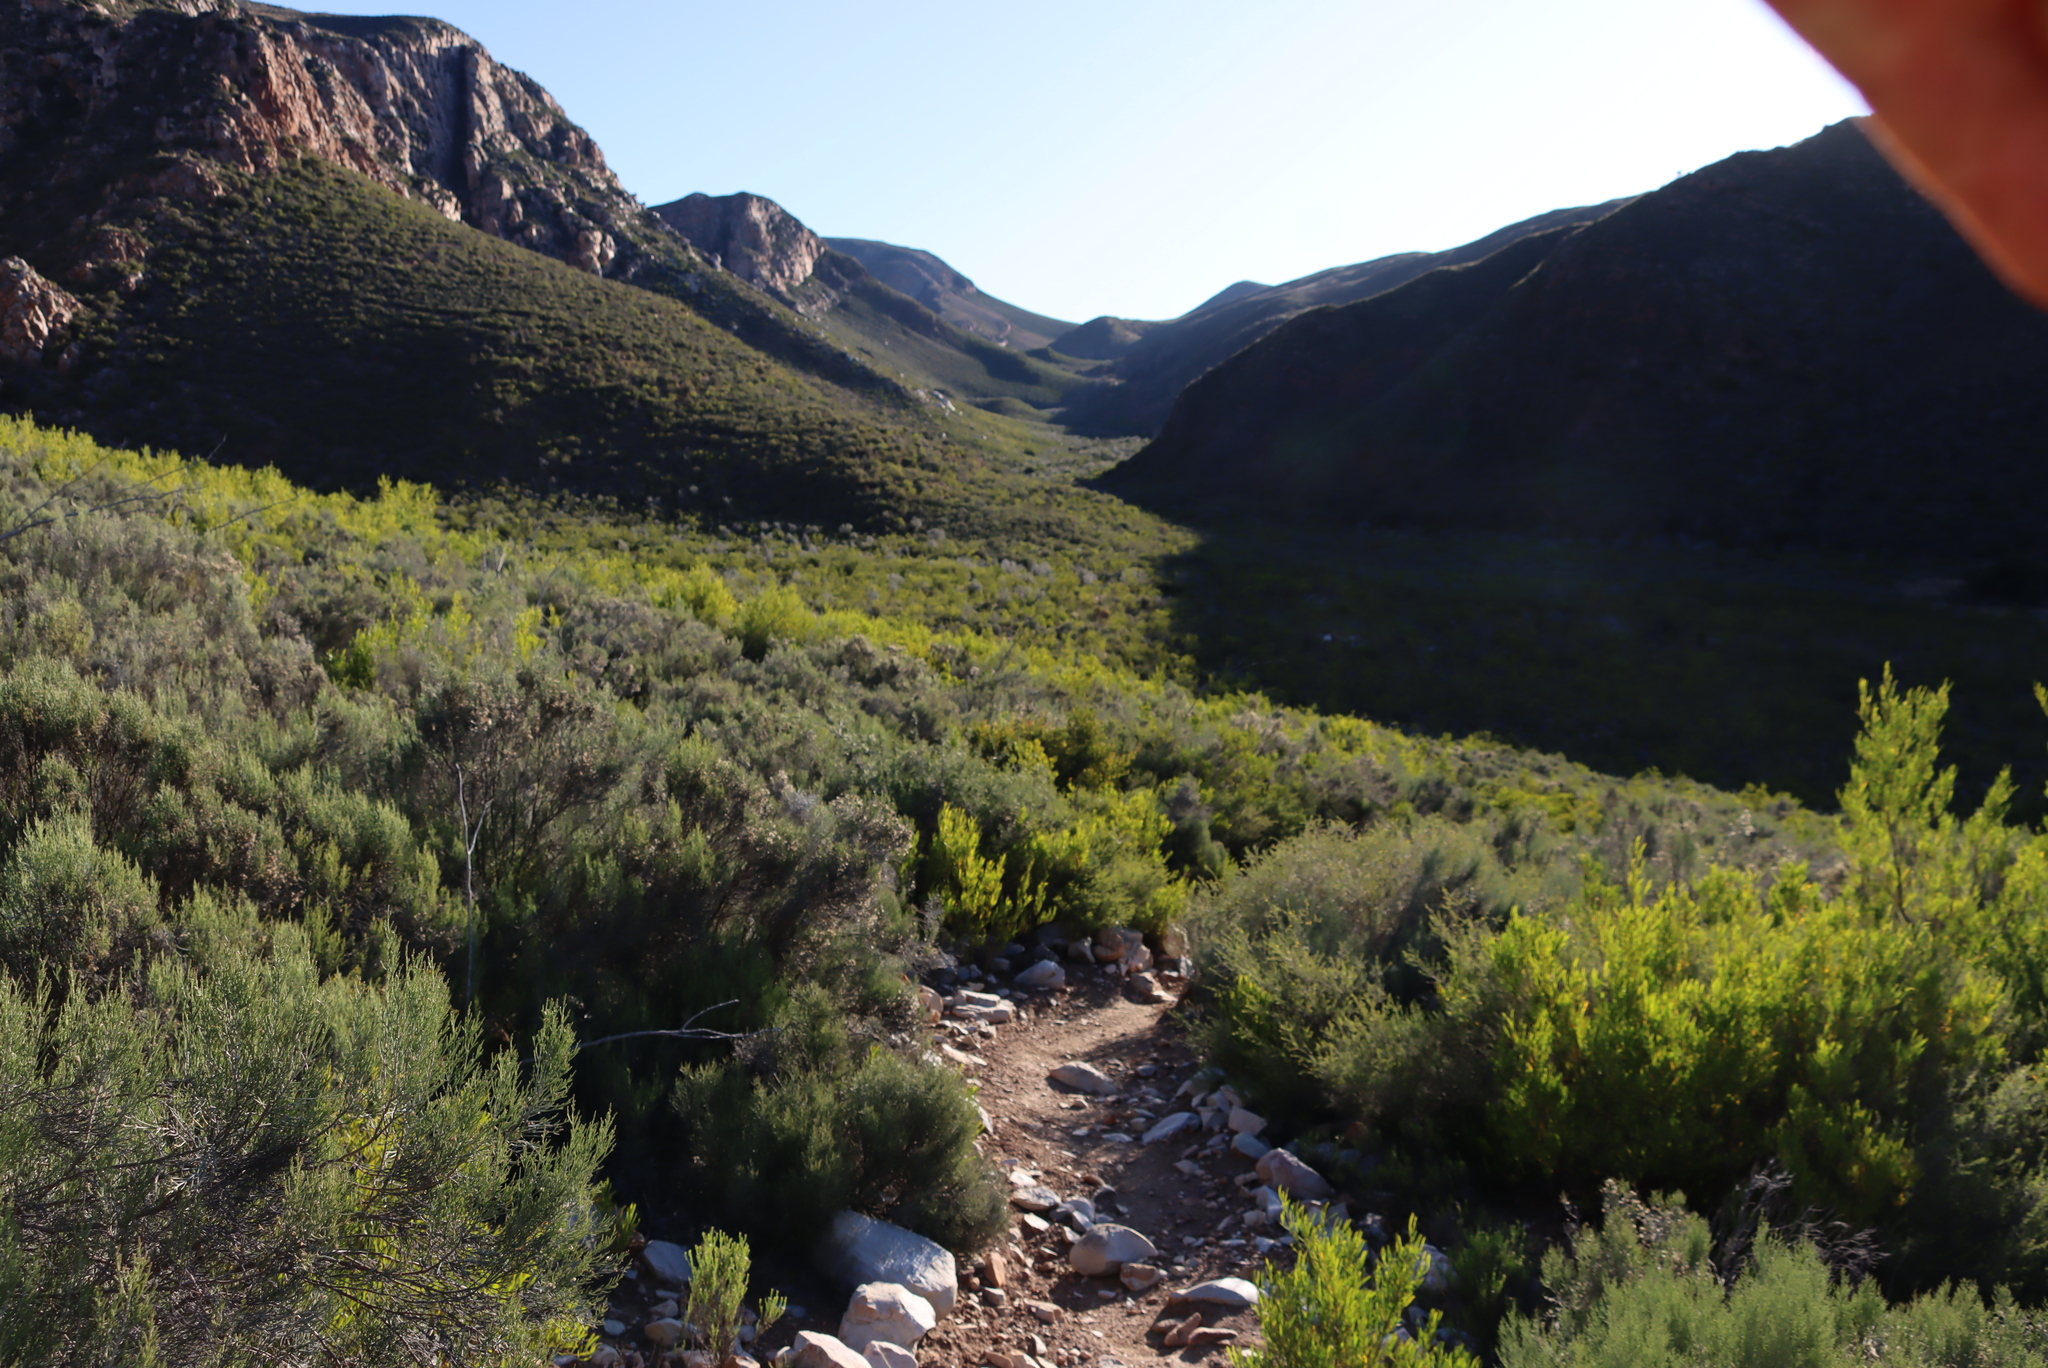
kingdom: Plantae
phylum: Tracheophyta
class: Magnoliopsida
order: Asterales
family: Asteraceae
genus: Dicerothamnus
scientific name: Dicerothamnus rhinocerotis
